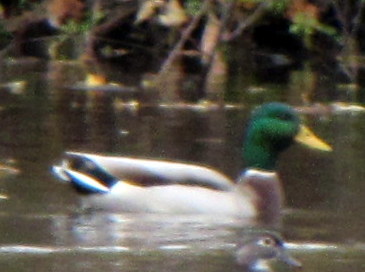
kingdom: Animalia
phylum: Chordata
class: Aves
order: Anseriformes
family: Anatidae
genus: Anas
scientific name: Anas platyrhynchos
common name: Mallard
